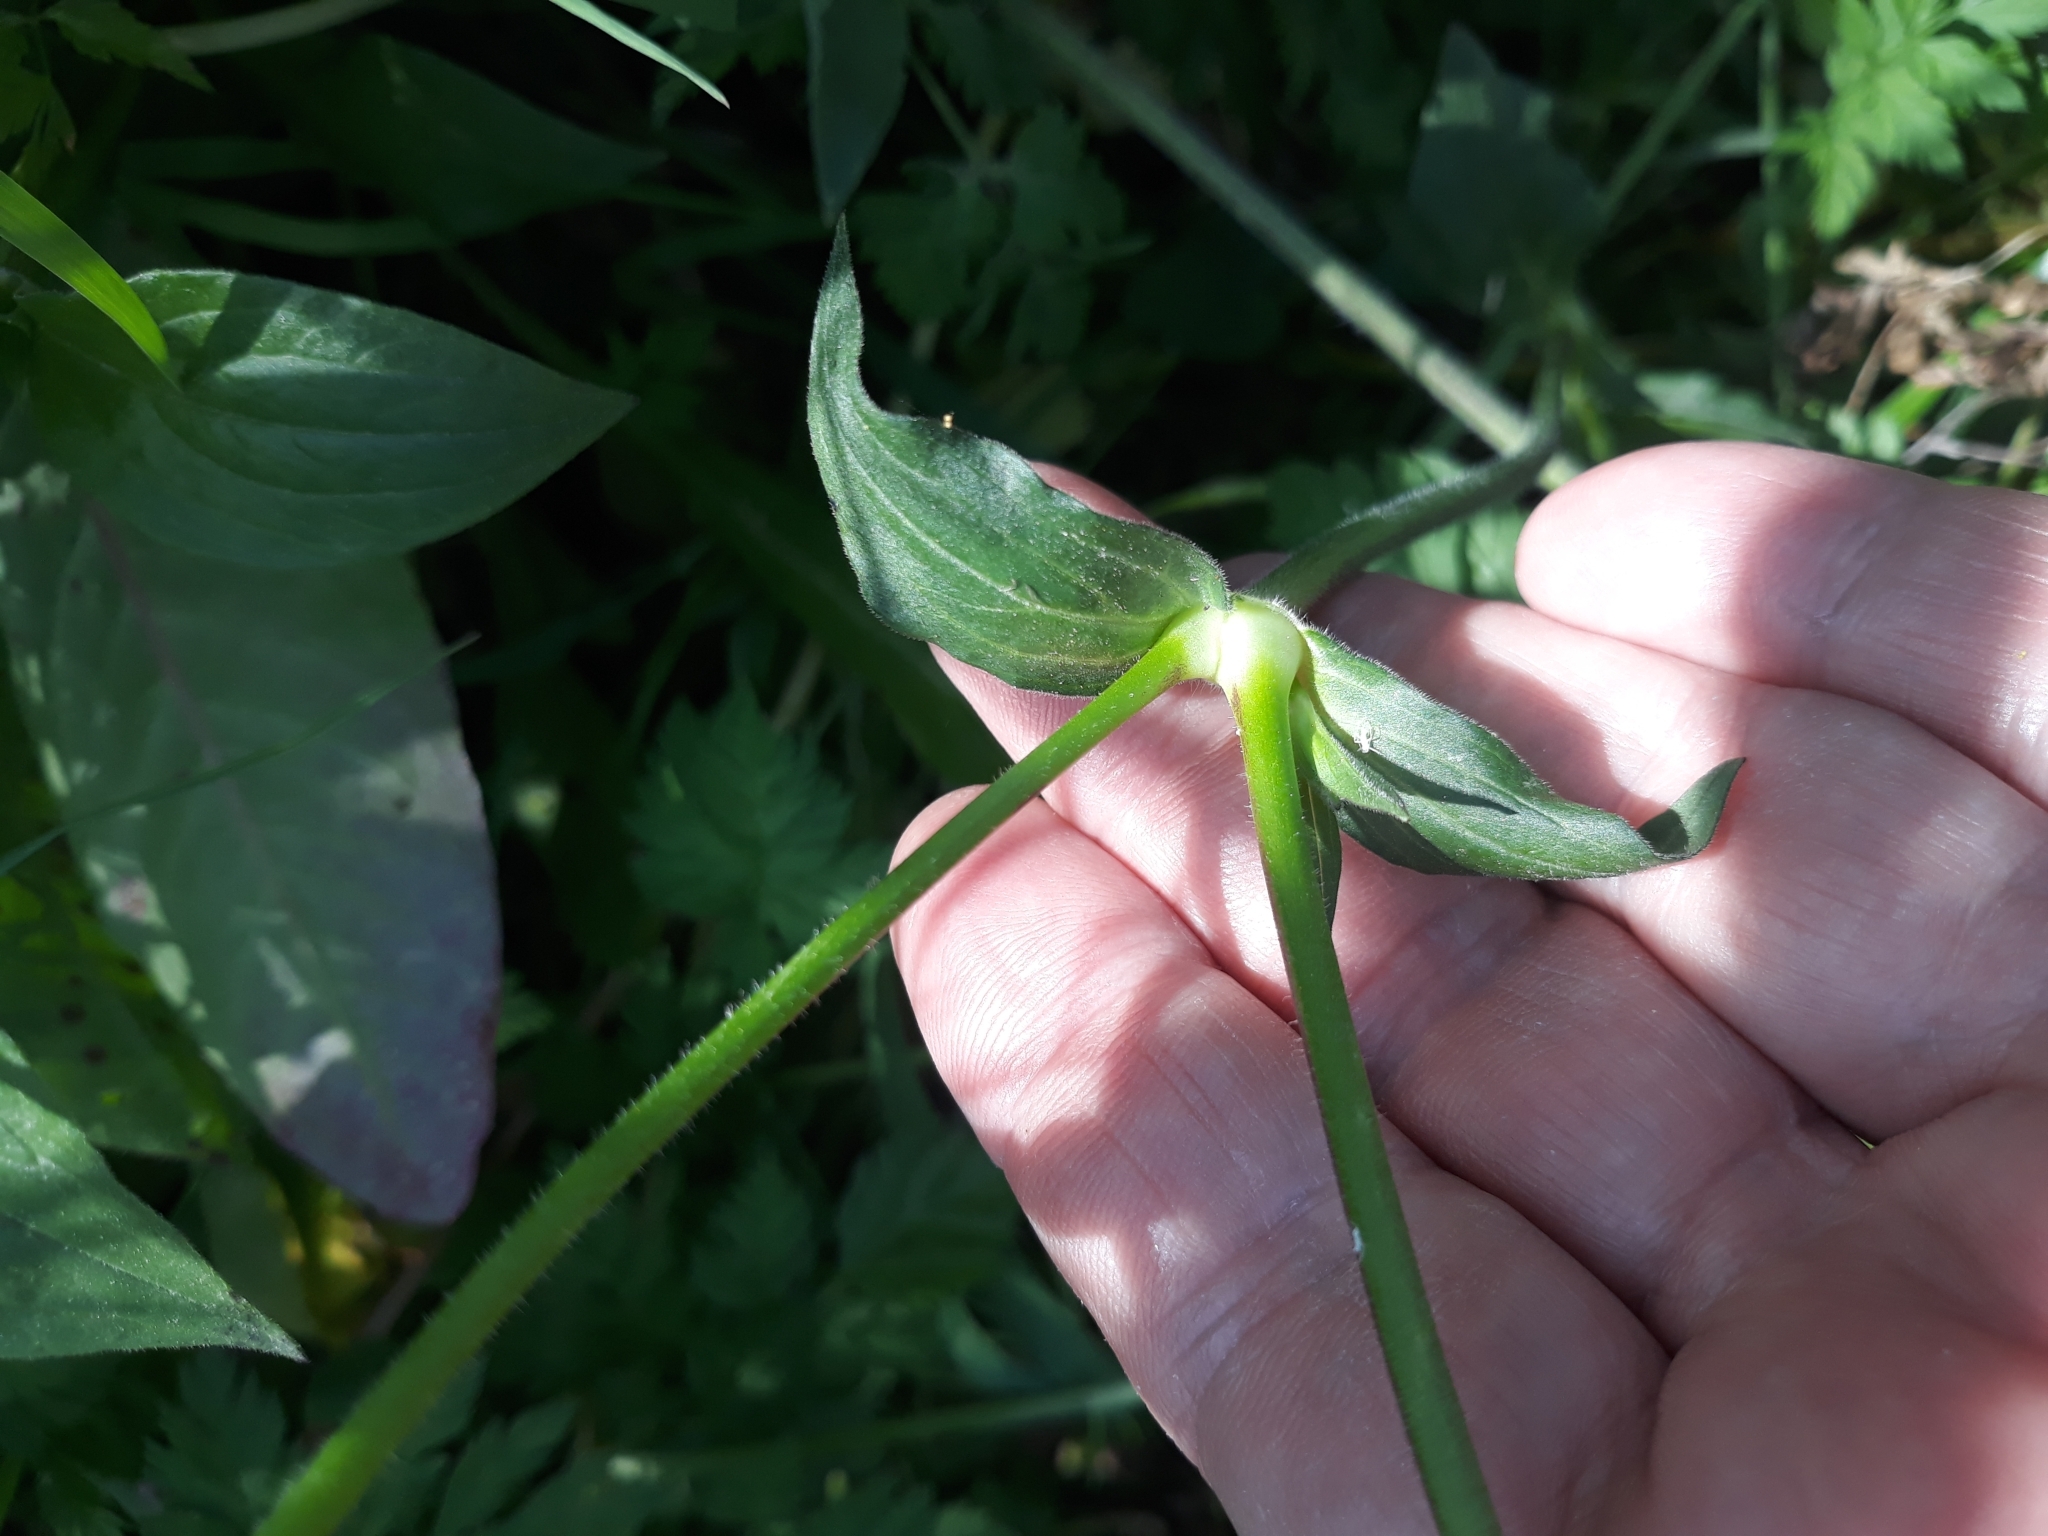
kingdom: Plantae
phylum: Tracheophyta
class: Magnoliopsida
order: Caryophyllales
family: Caryophyllaceae
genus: Silene
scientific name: Silene latifolia
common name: White campion
